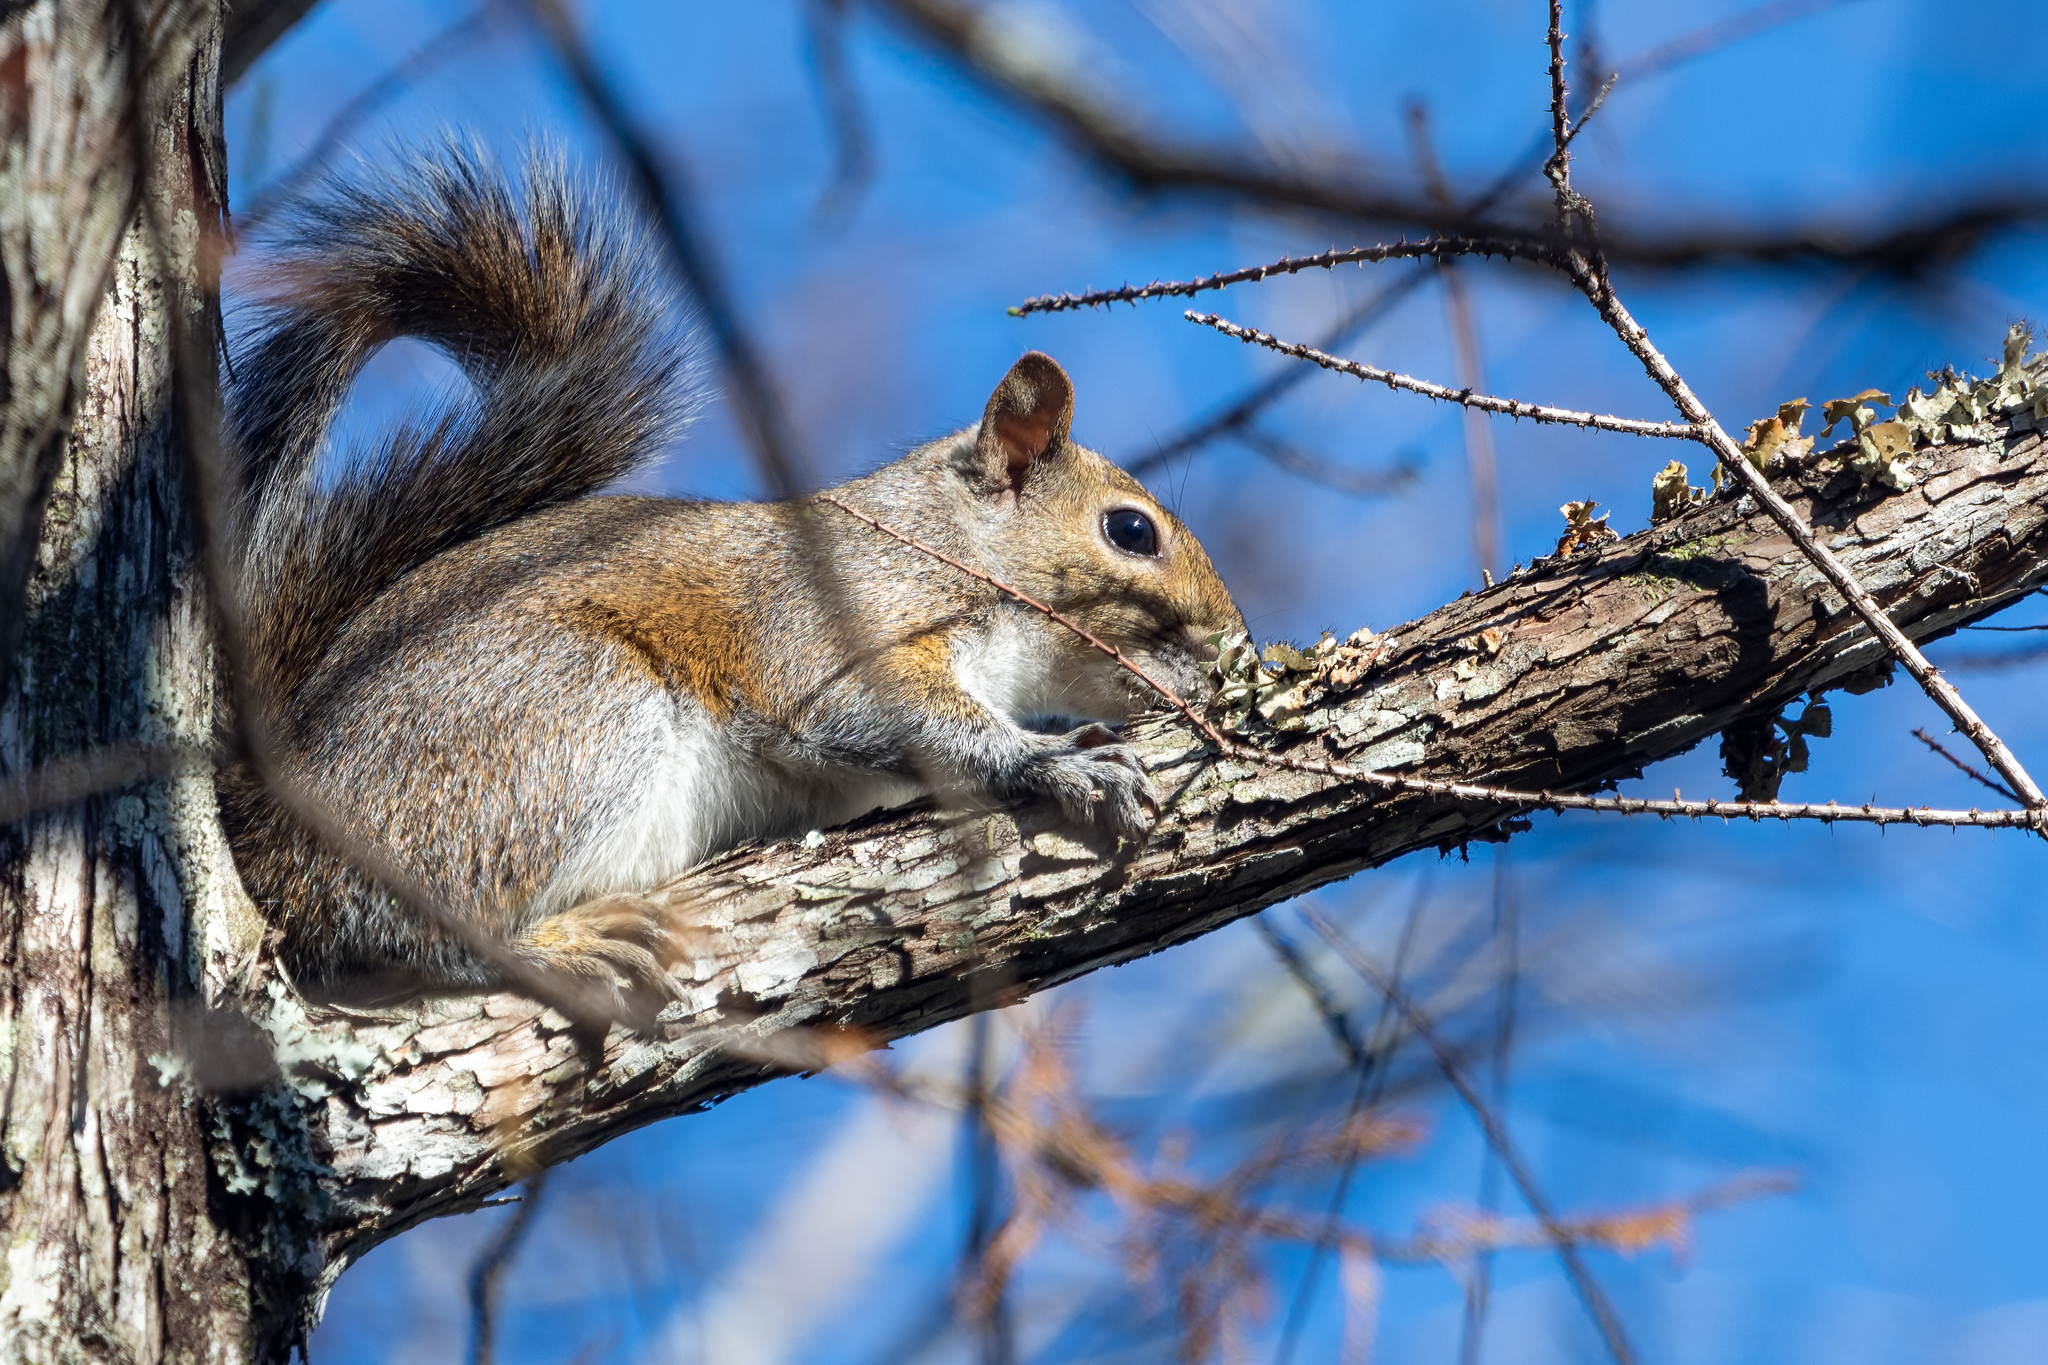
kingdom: Animalia
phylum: Chordata
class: Mammalia
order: Rodentia
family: Sciuridae
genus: Sciurus
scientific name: Sciurus carolinensis
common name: Eastern gray squirrel
